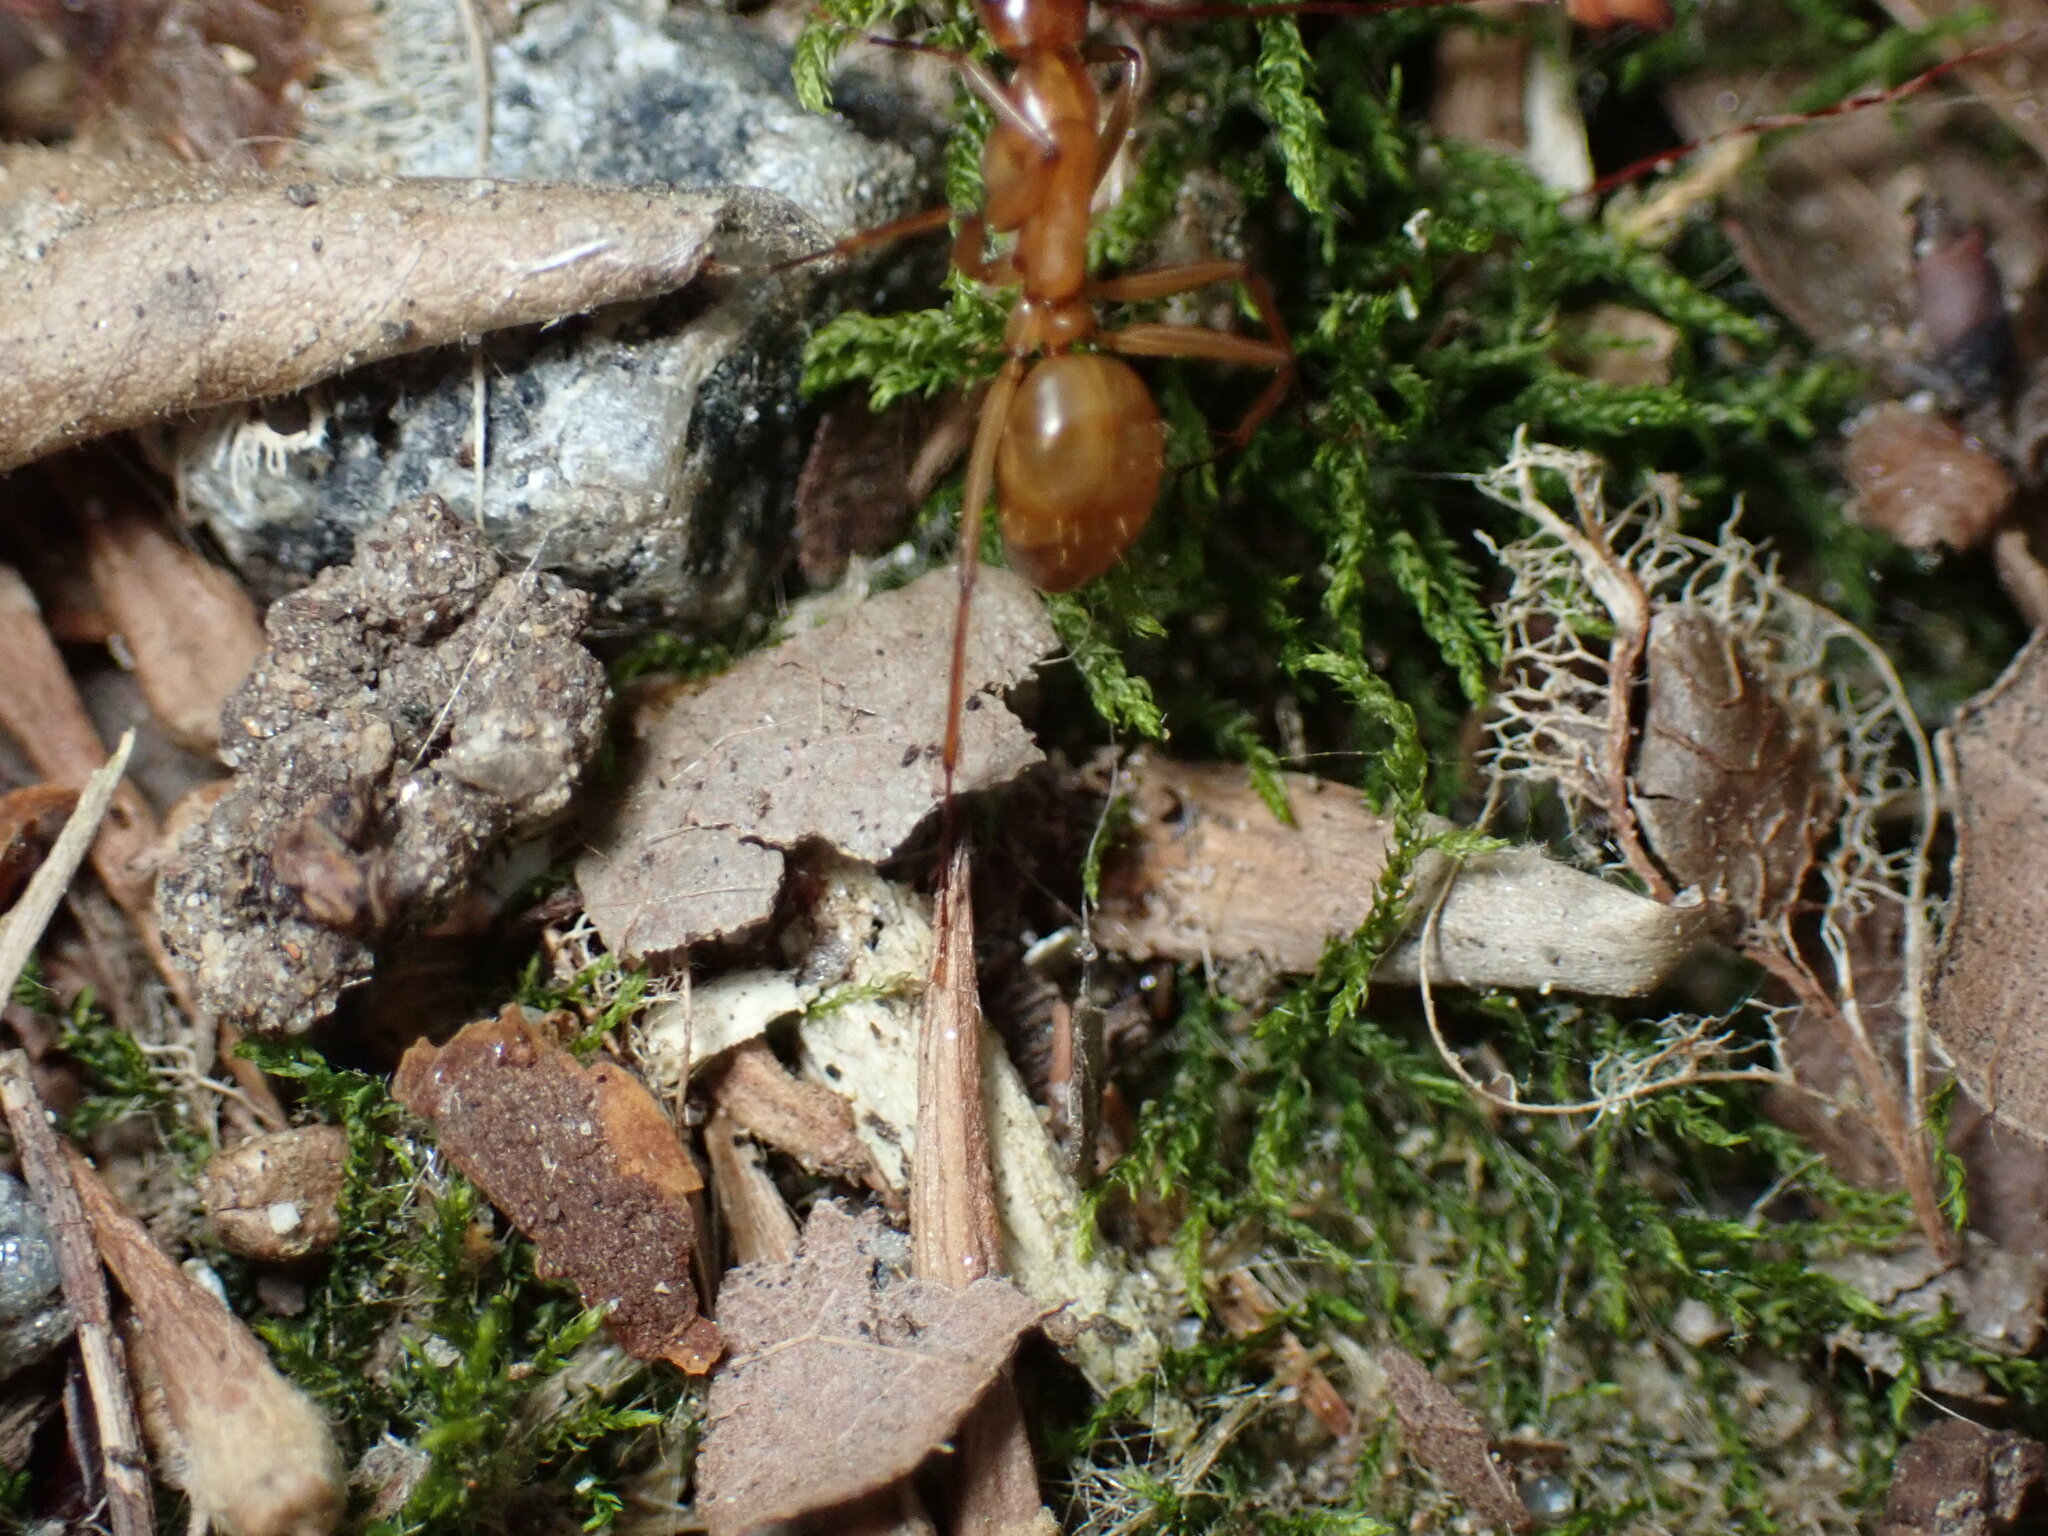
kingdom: Animalia
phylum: Arthropoda
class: Insecta
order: Hymenoptera
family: Formicidae
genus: Camponotus
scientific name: Camponotus castaneus
